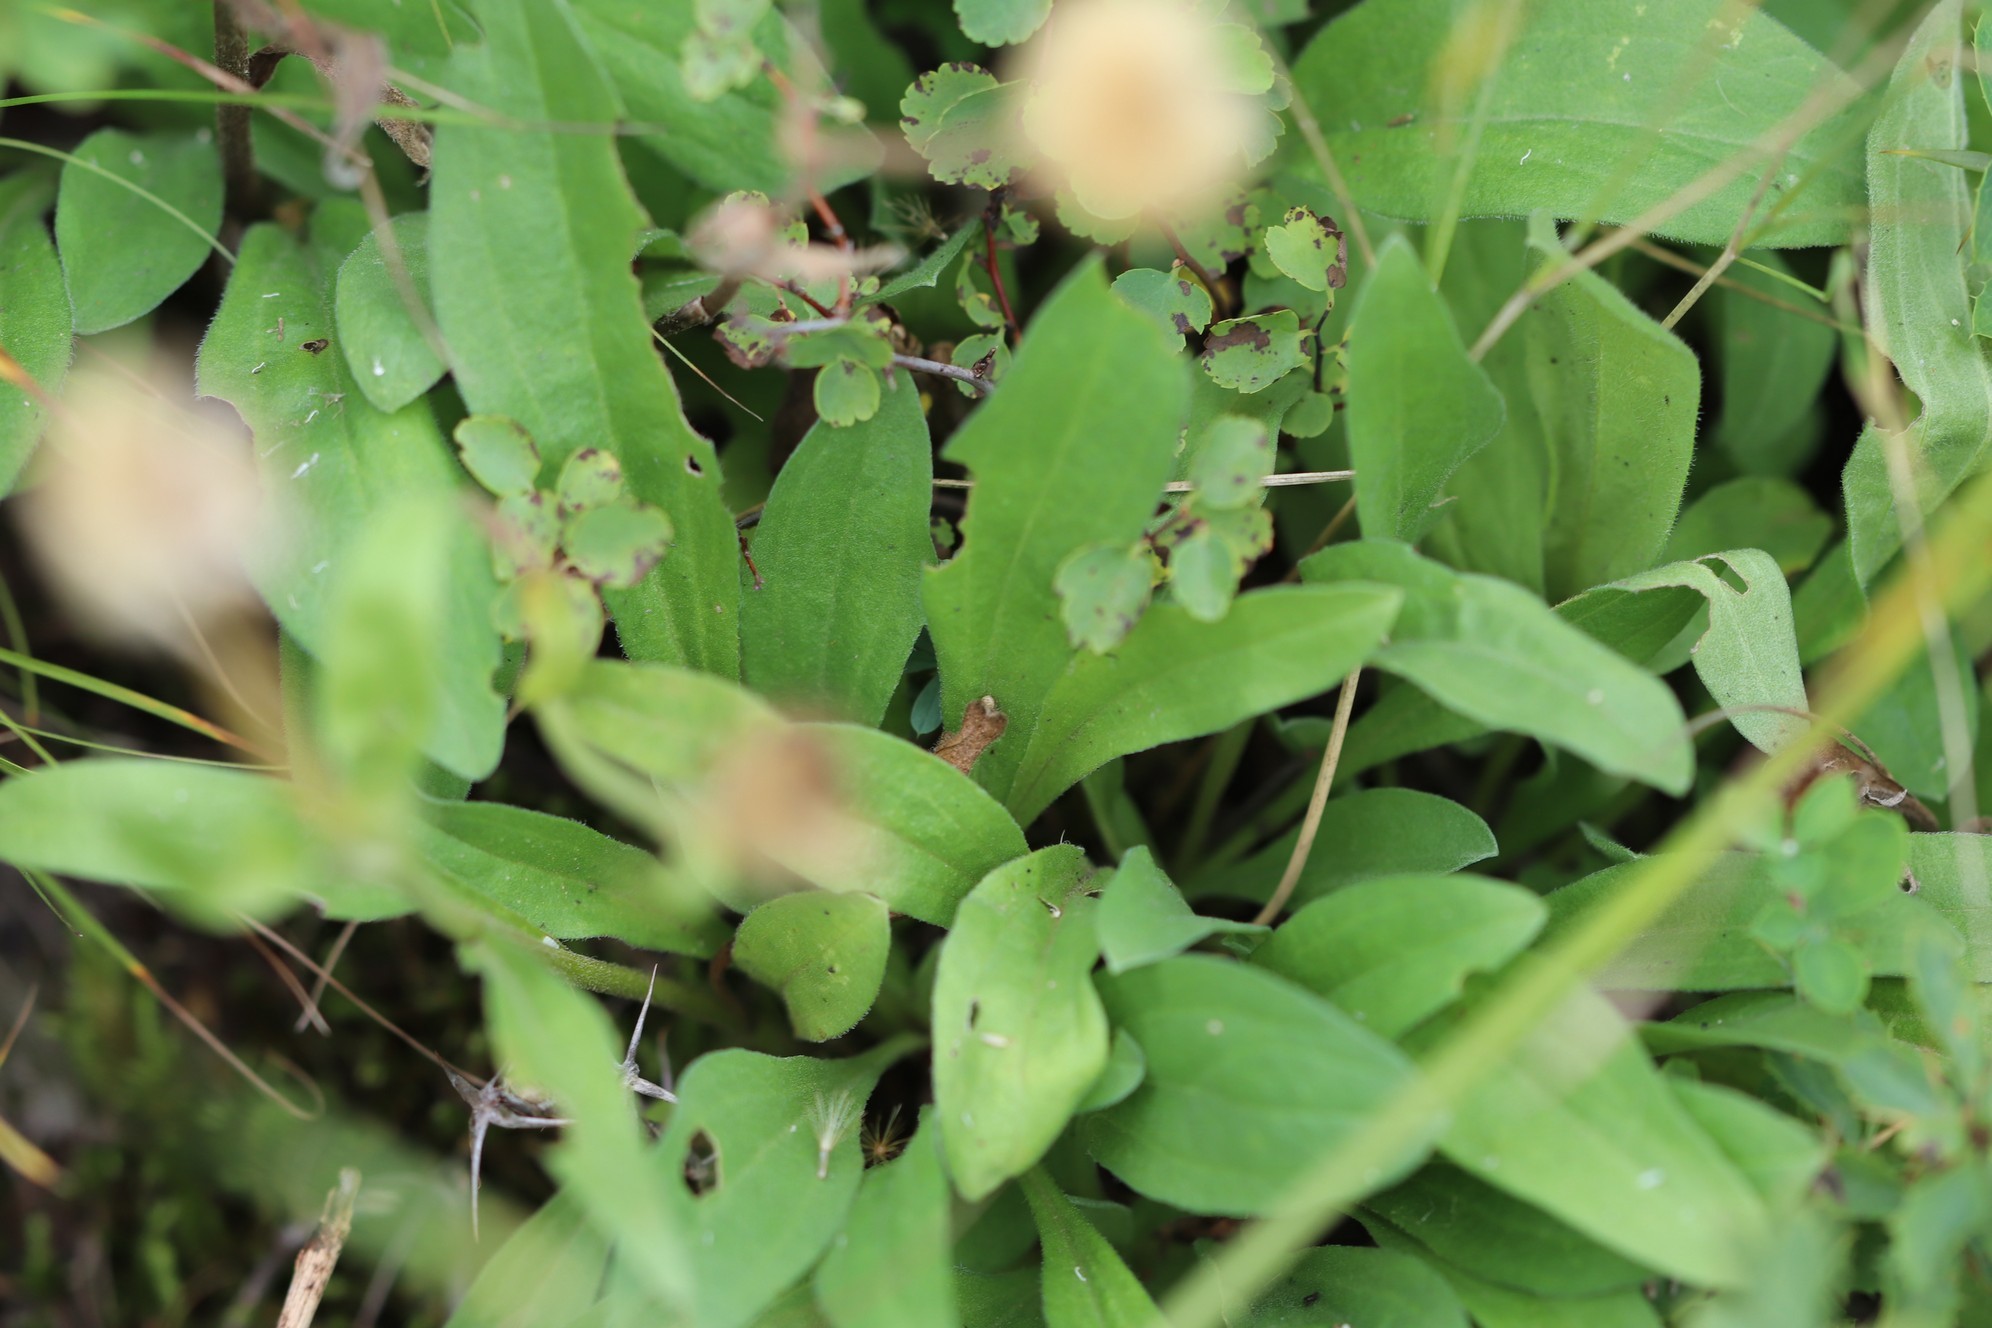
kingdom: Plantae
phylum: Tracheophyta
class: Magnoliopsida
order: Asterales
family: Asteraceae
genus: Trommsdorffia
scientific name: Trommsdorffia maculata
